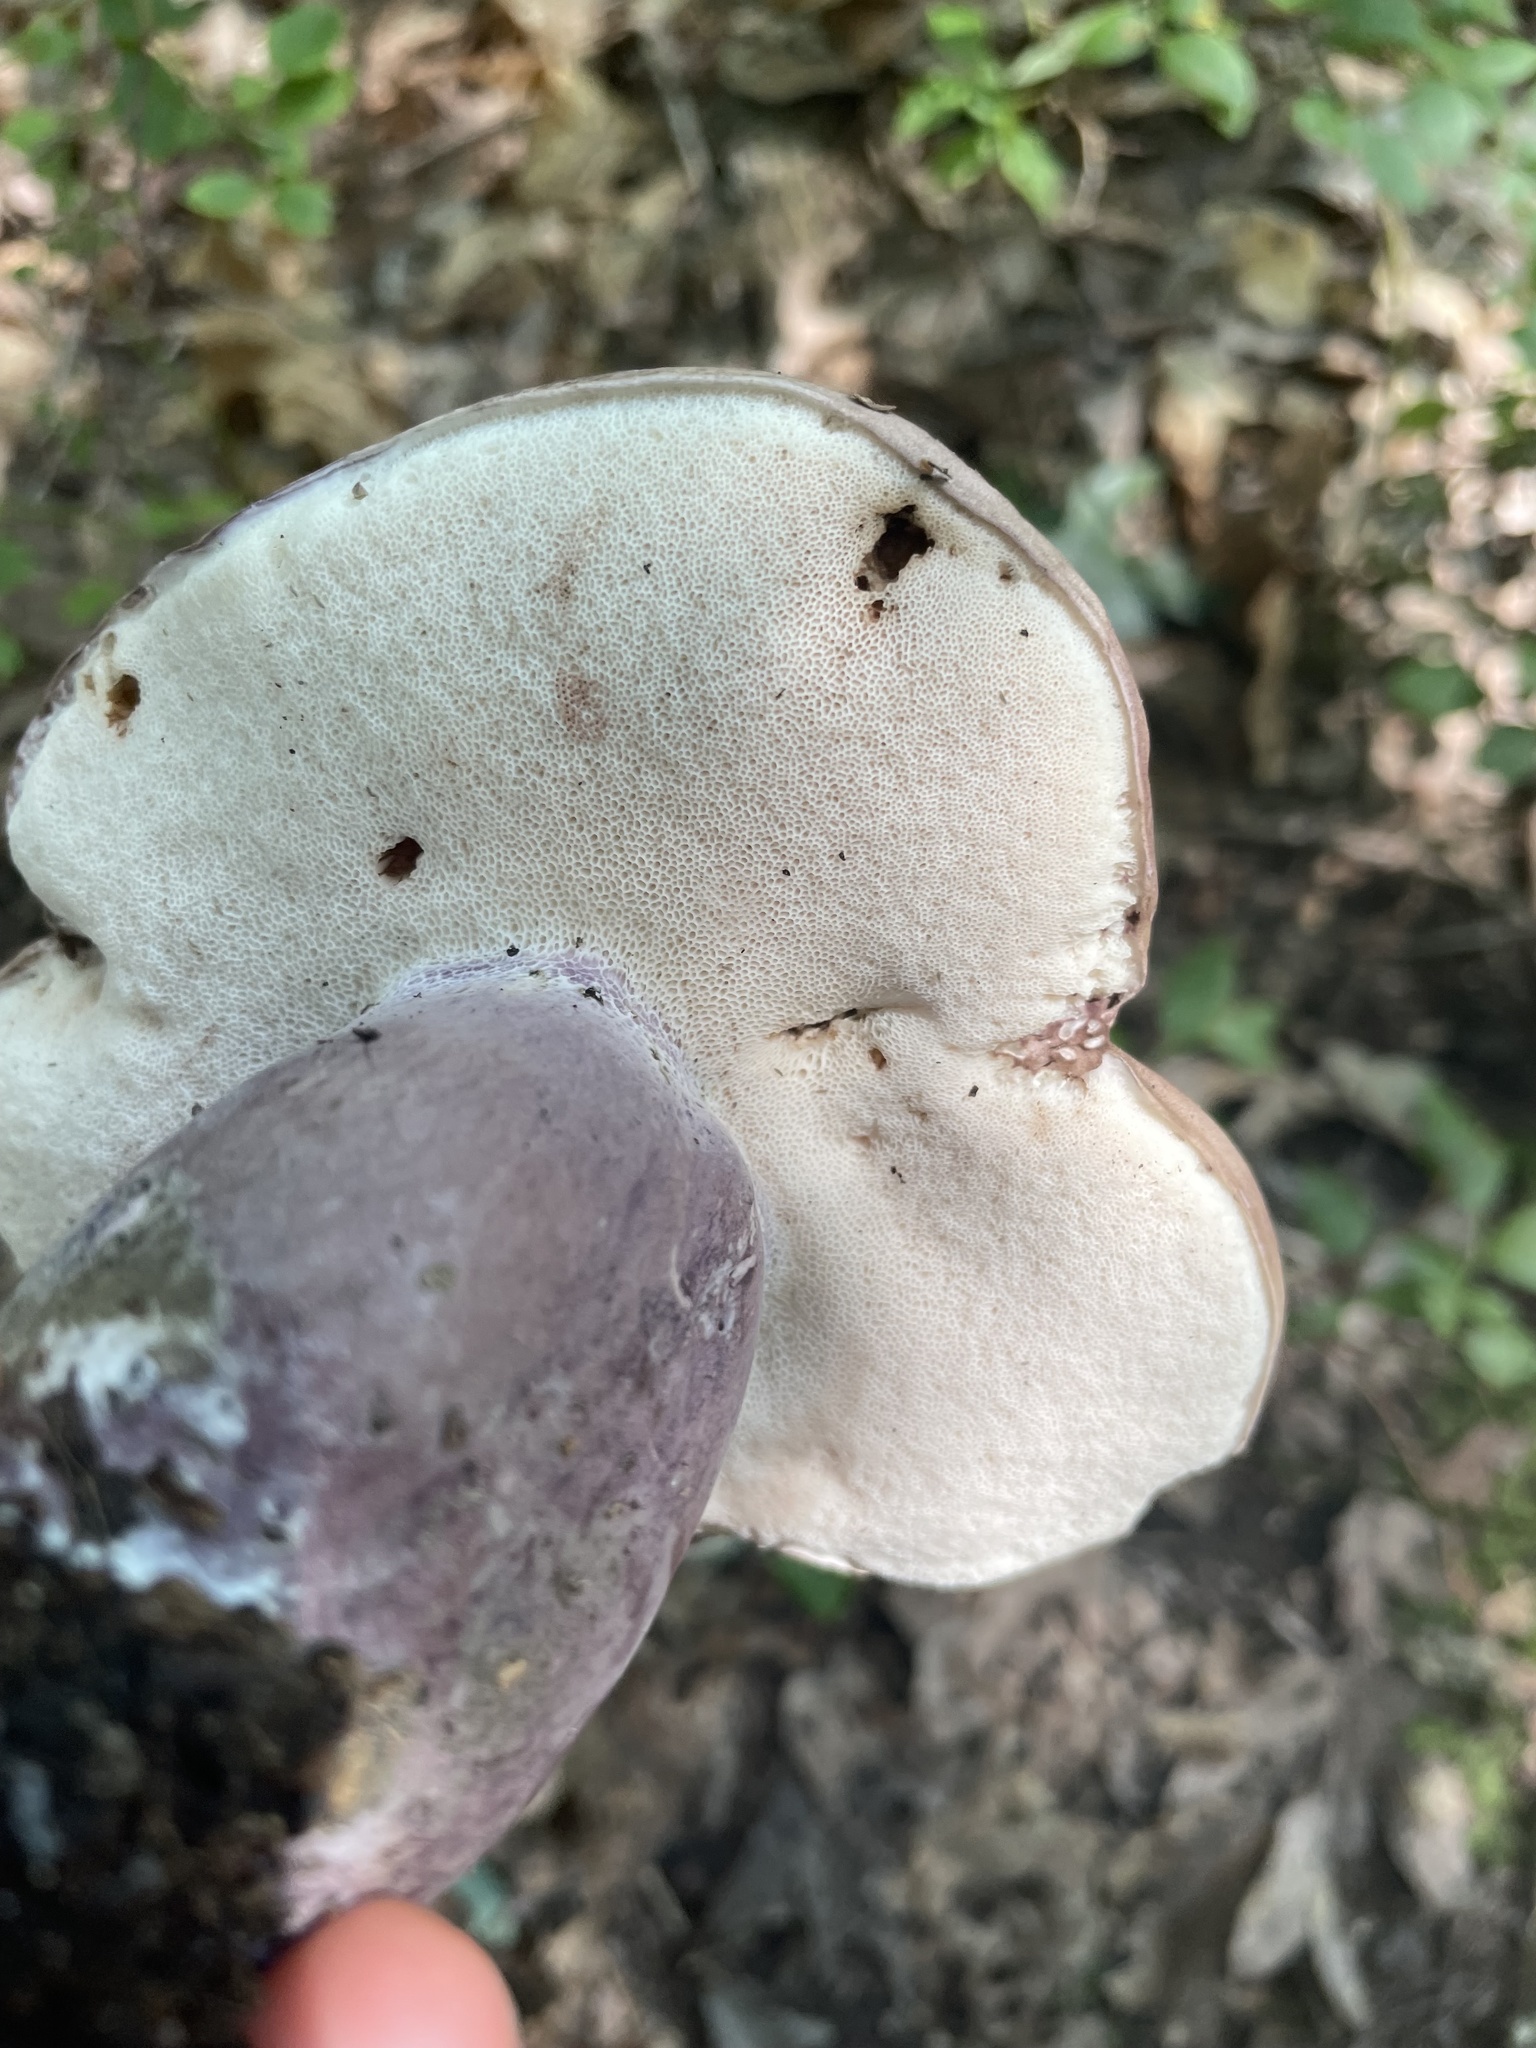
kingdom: Fungi
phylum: Basidiomycota
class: Agaricomycetes
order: Boletales
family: Boletaceae
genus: Tylopilus
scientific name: Tylopilus plumbeoviolaceus
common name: Violet gray bolete
